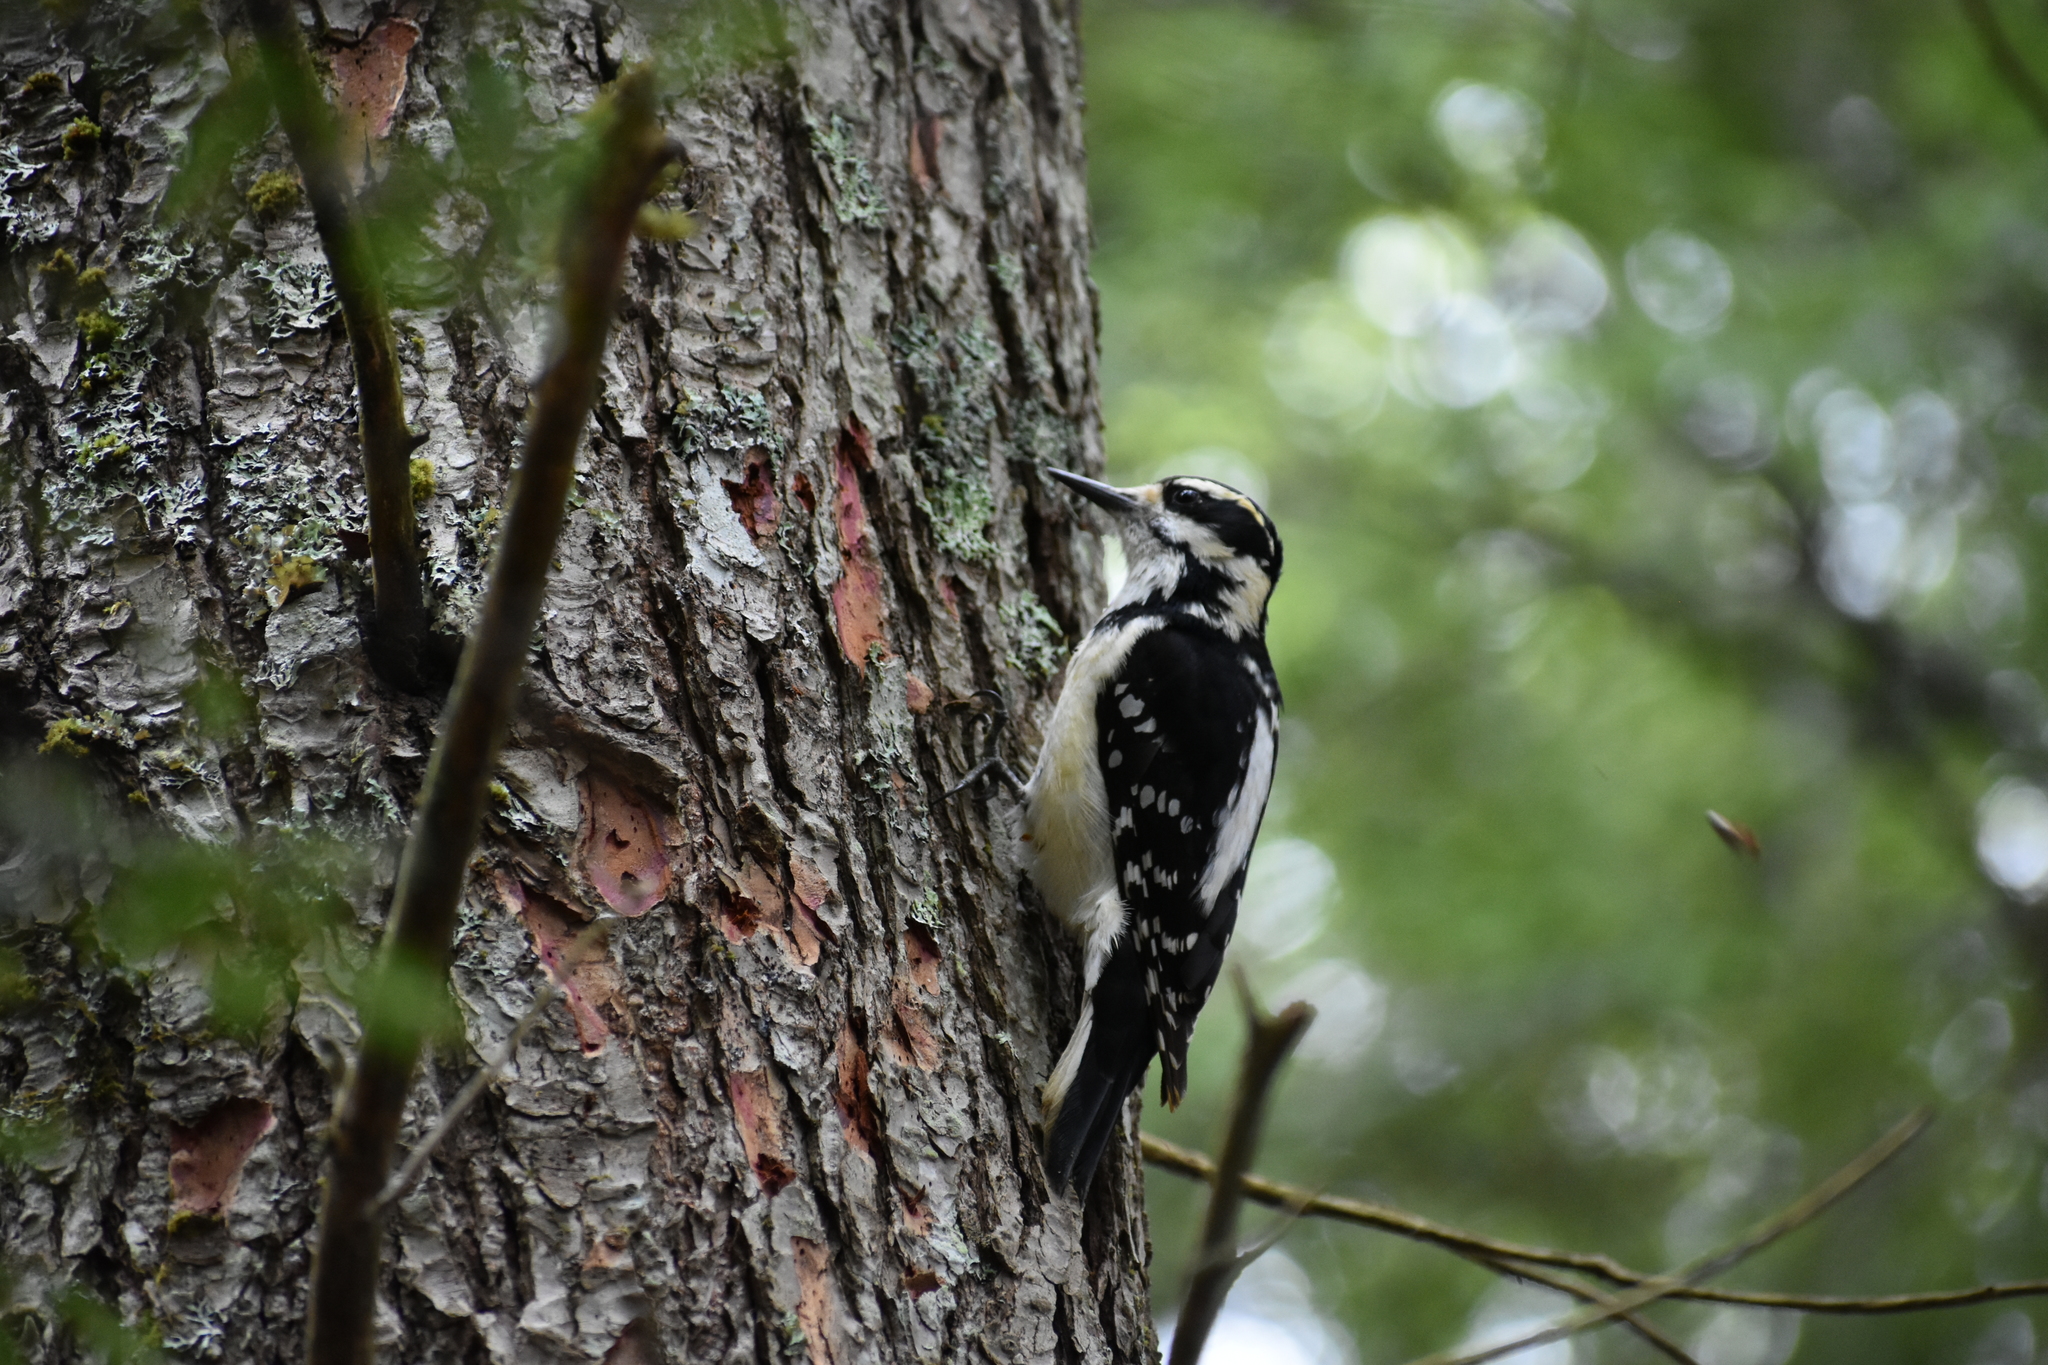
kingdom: Animalia
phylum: Chordata
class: Aves
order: Piciformes
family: Picidae
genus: Leuconotopicus
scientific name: Leuconotopicus villosus
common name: Hairy woodpecker
